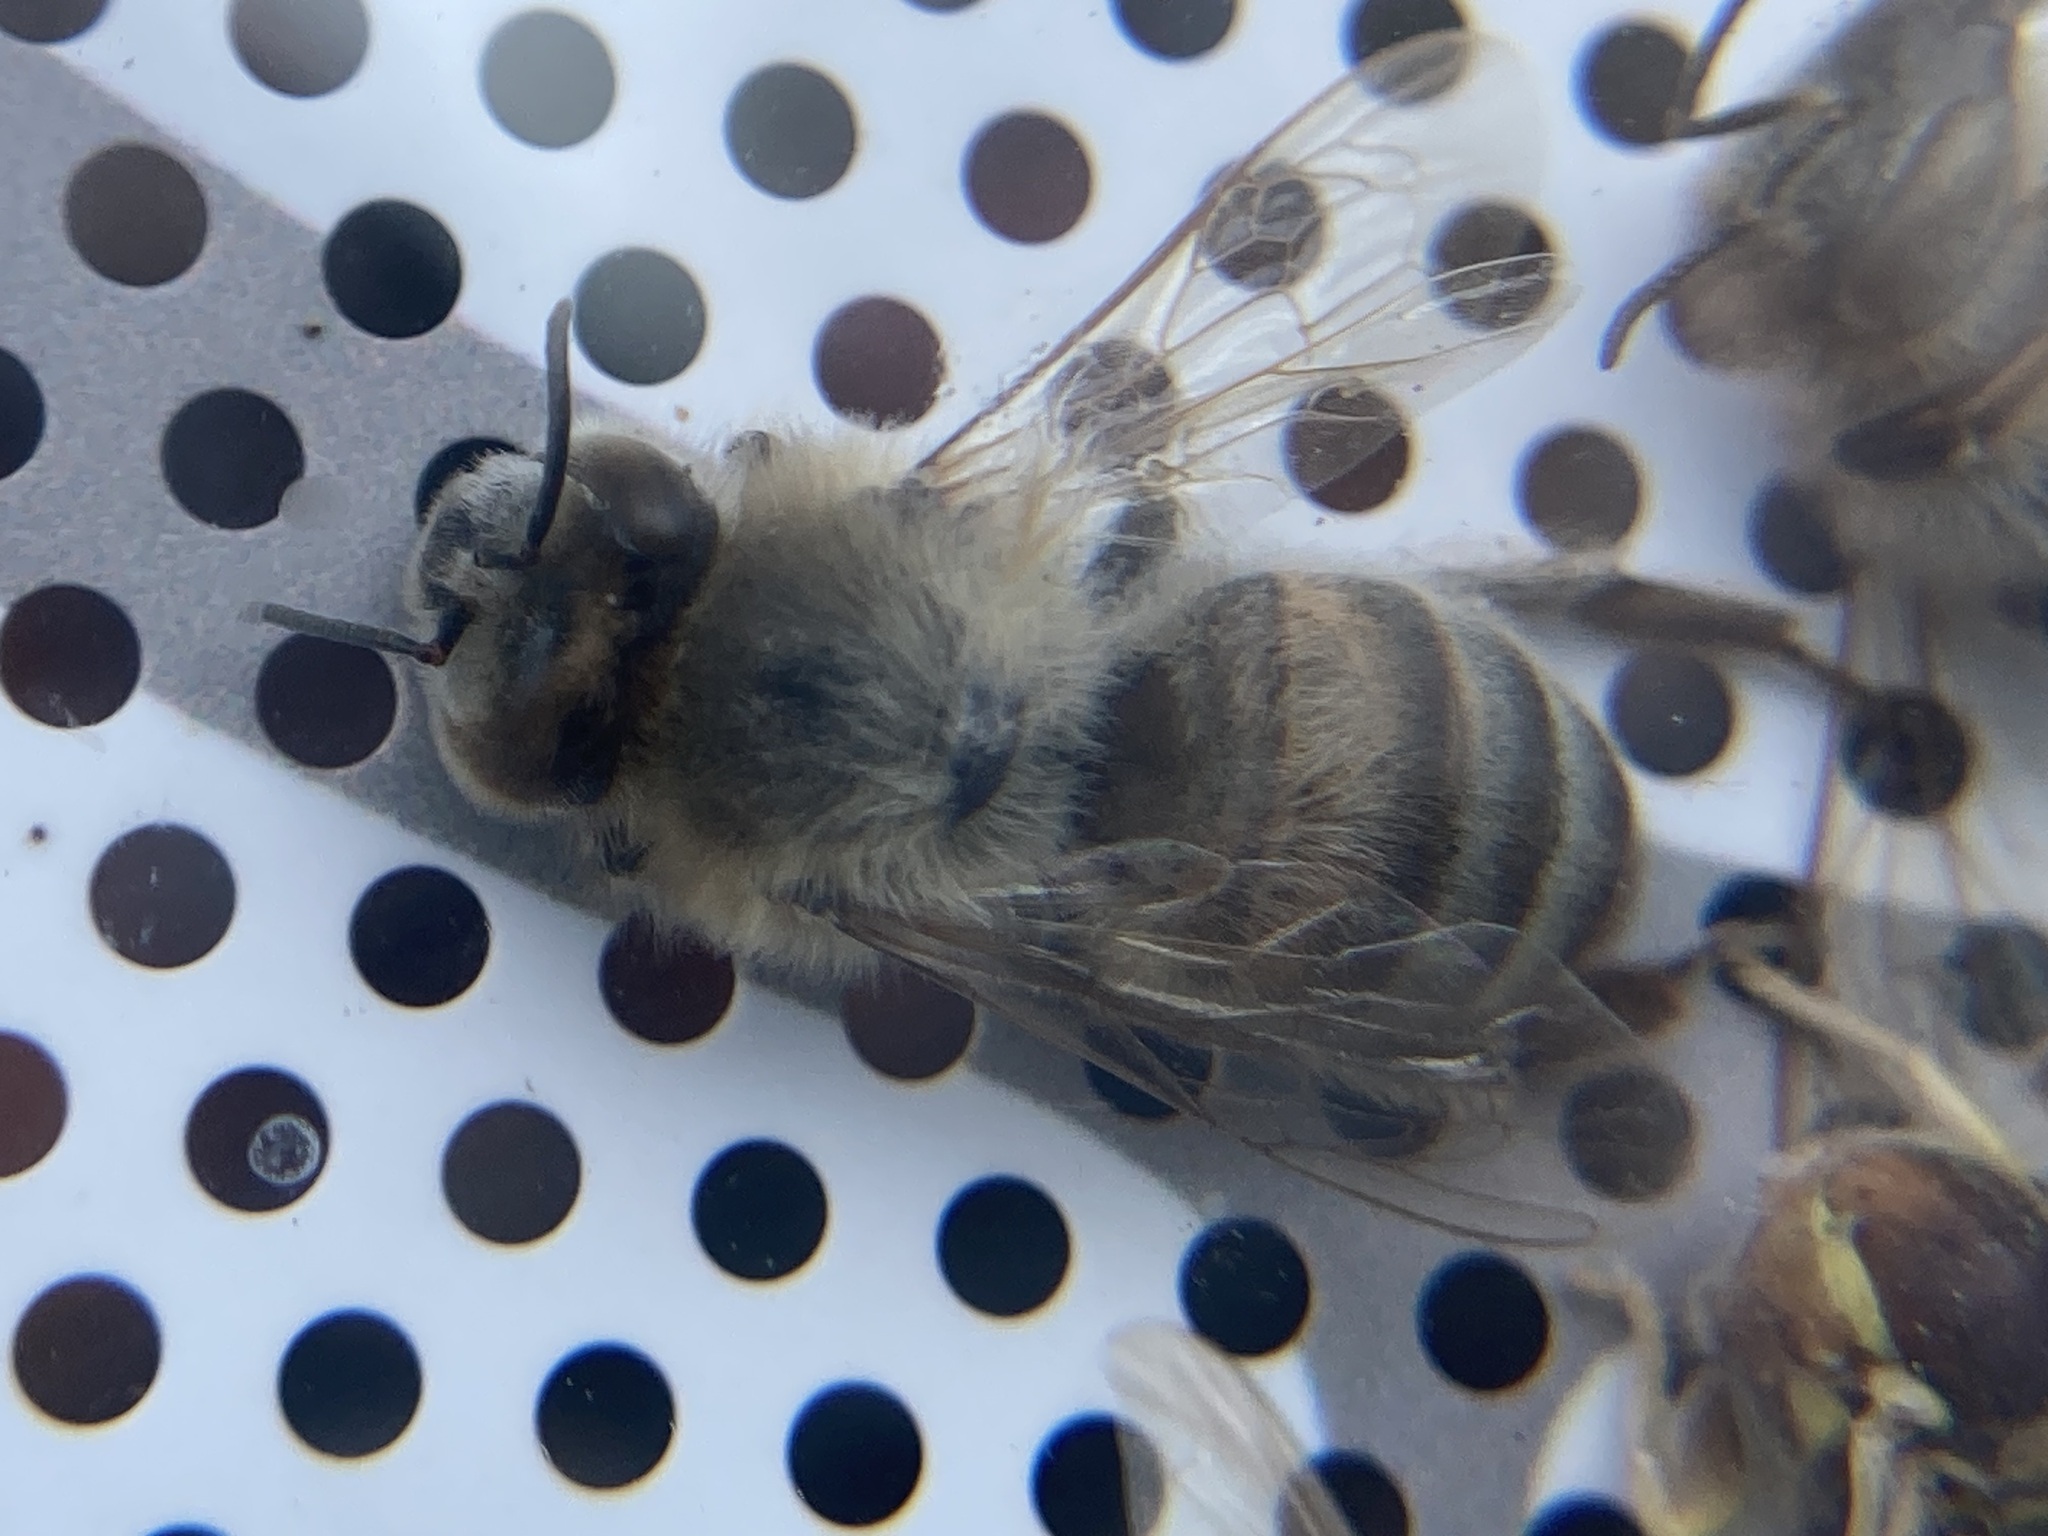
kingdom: Animalia
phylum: Arthropoda
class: Insecta
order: Hymenoptera
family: Apidae
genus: Apis
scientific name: Apis mellifera
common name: Honey bee
